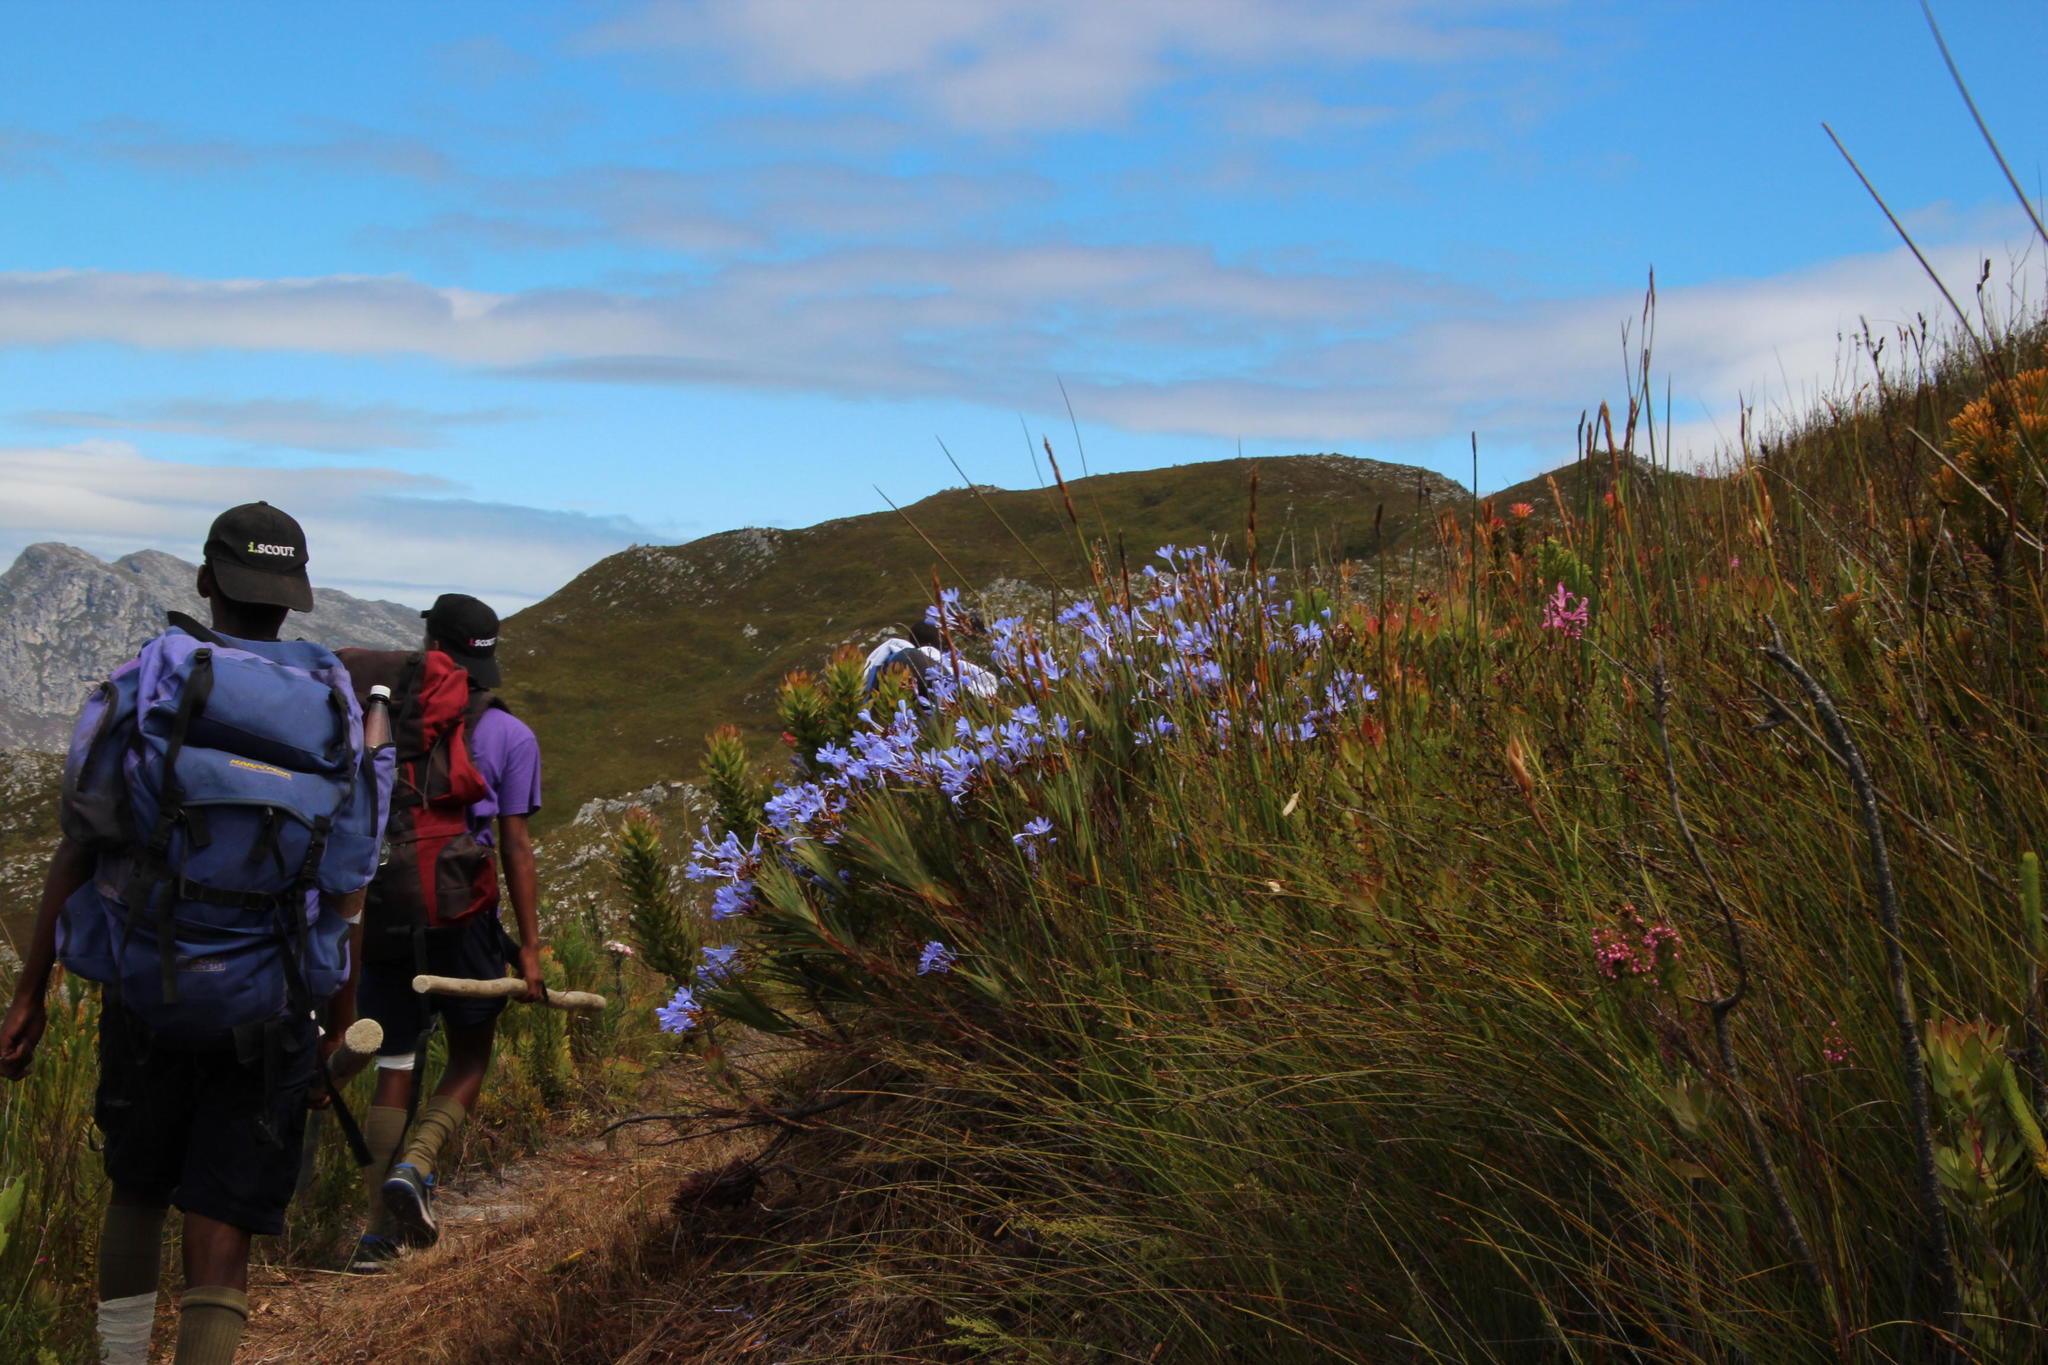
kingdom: Plantae
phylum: Tracheophyta
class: Liliopsida
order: Asparagales
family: Iridaceae
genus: Nivenia
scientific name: Nivenia stokoei
